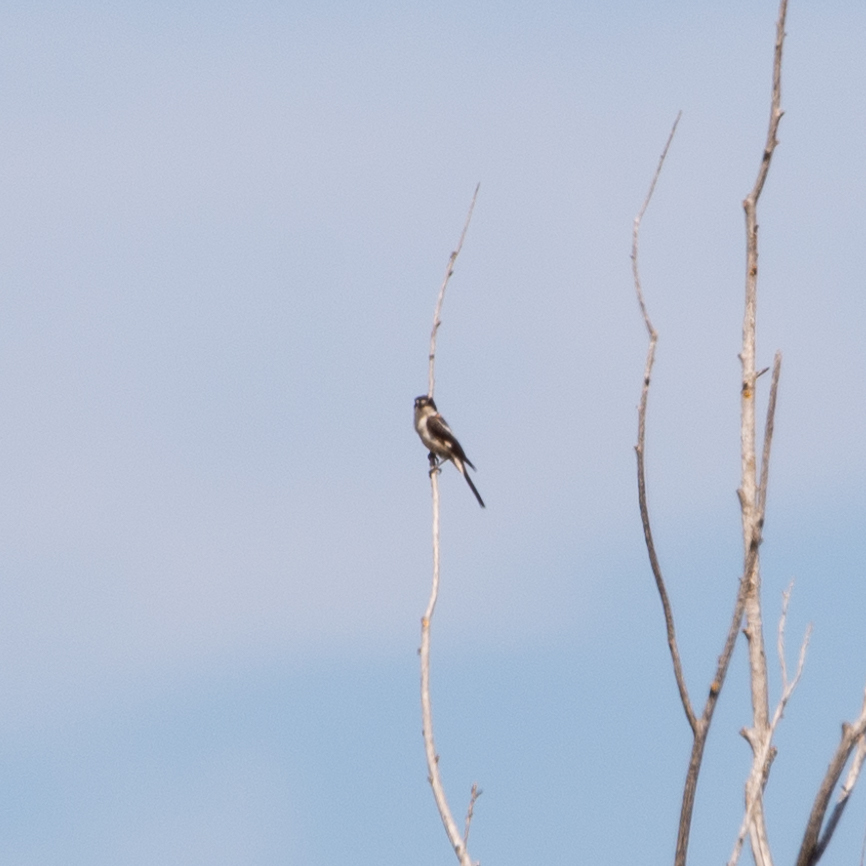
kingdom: Animalia
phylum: Chordata
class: Aves
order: Passeriformes
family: Laniidae
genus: Lanius
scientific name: Lanius senator
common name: Woodchat shrike
